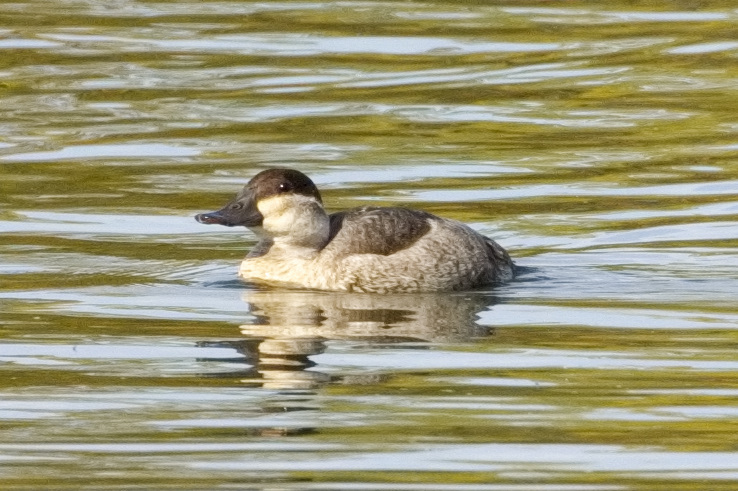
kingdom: Animalia
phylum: Chordata
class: Aves
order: Anseriformes
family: Anatidae
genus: Oxyura
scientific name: Oxyura jamaicensis
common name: Ruddy duck
